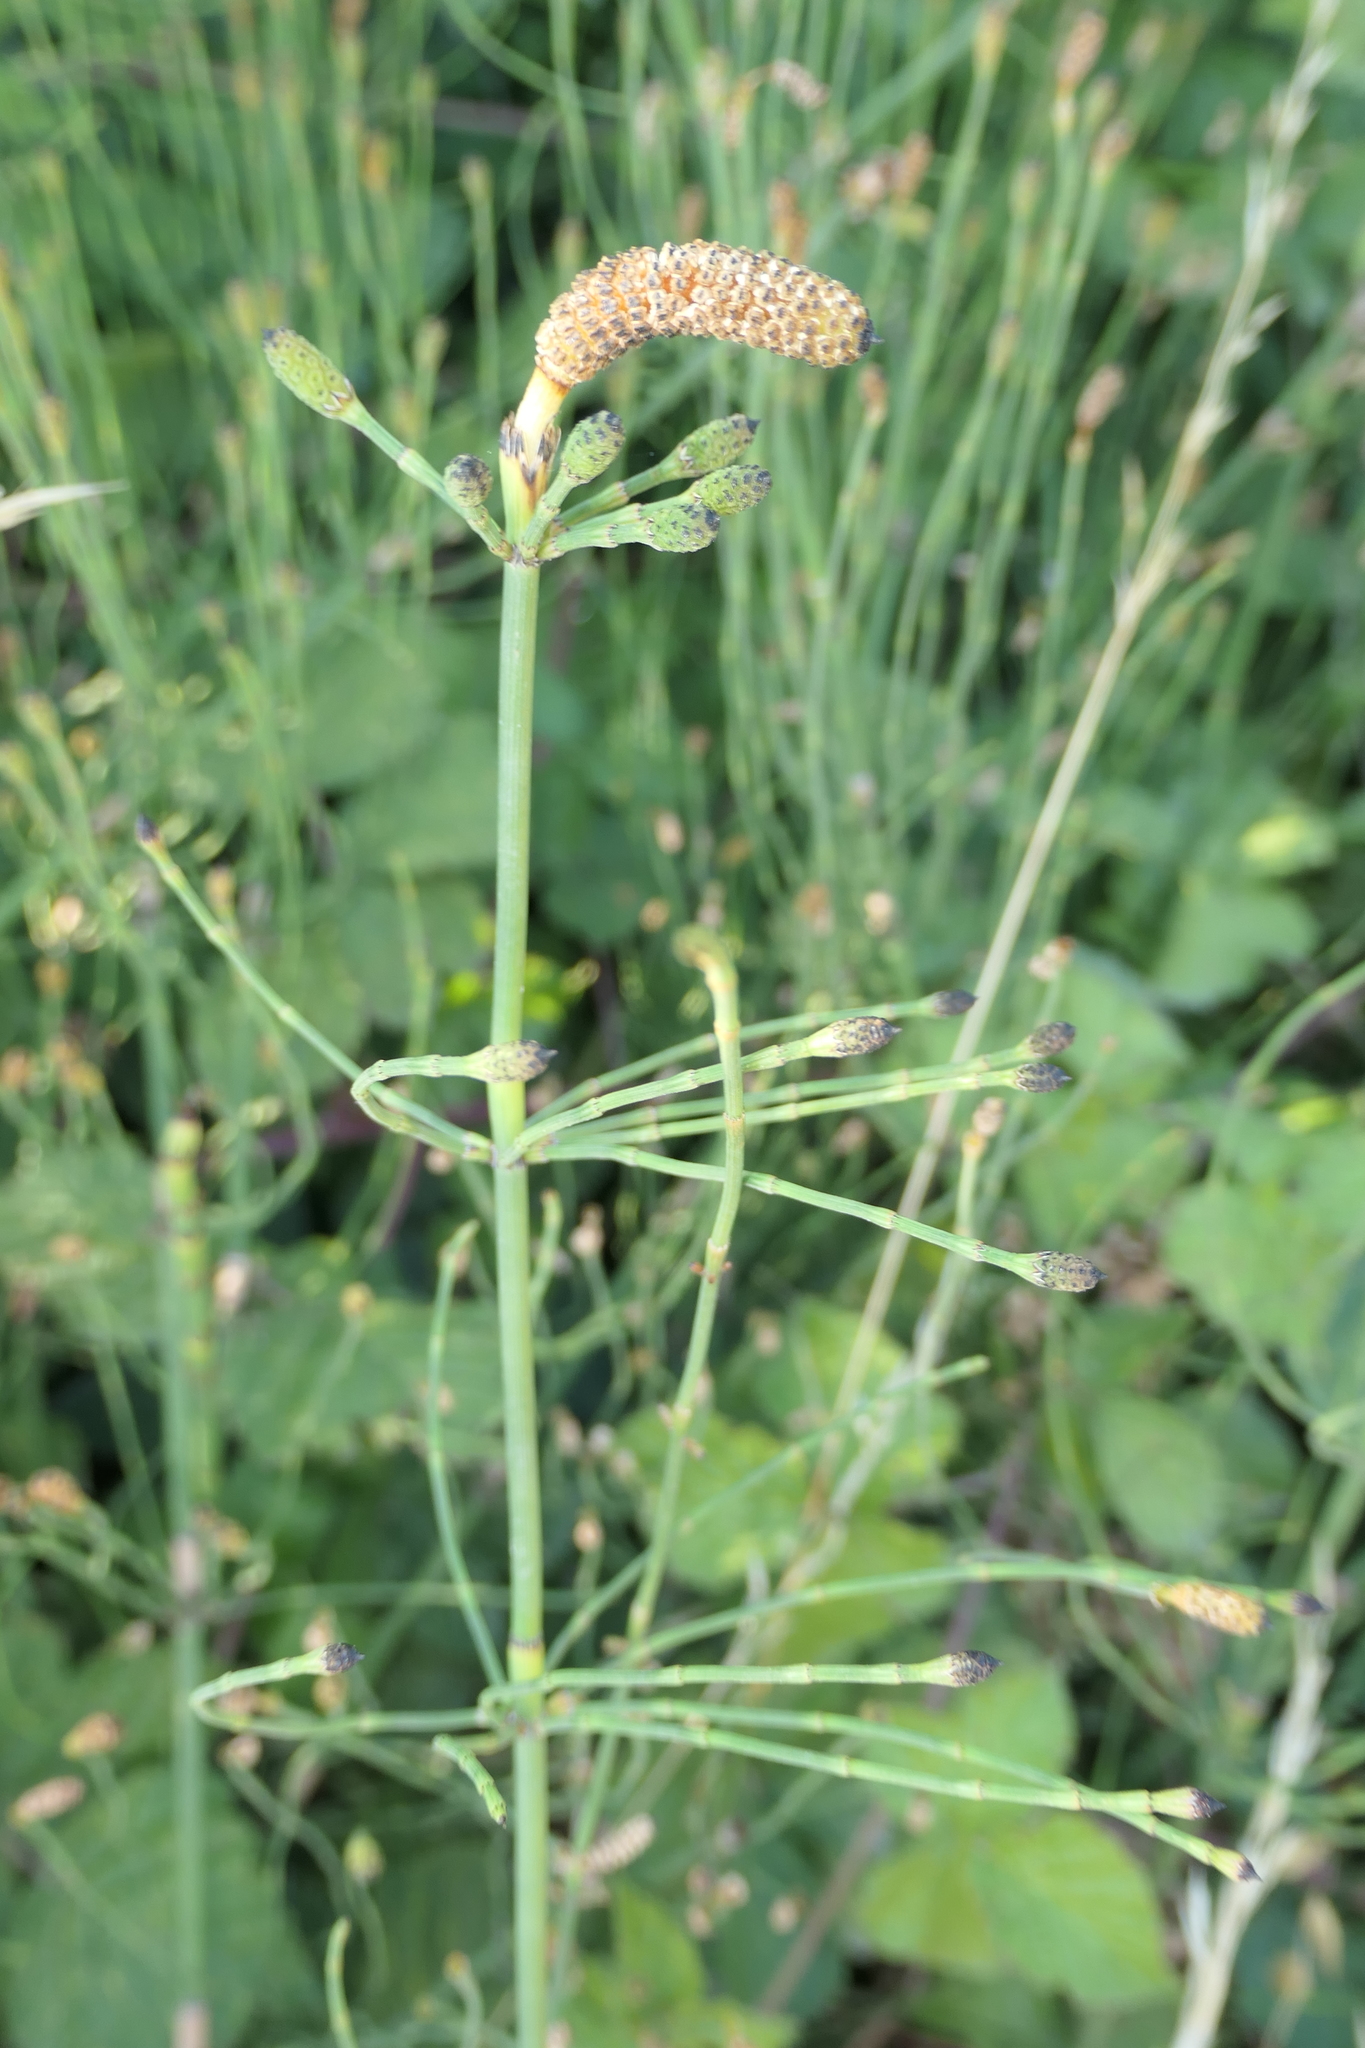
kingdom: Plantae
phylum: Tracheophyta
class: Polypodiopsida
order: Equisetales
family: Equisetaceae
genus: Equisetum
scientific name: Equisetum ramosissimum
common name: Branched horsetail
